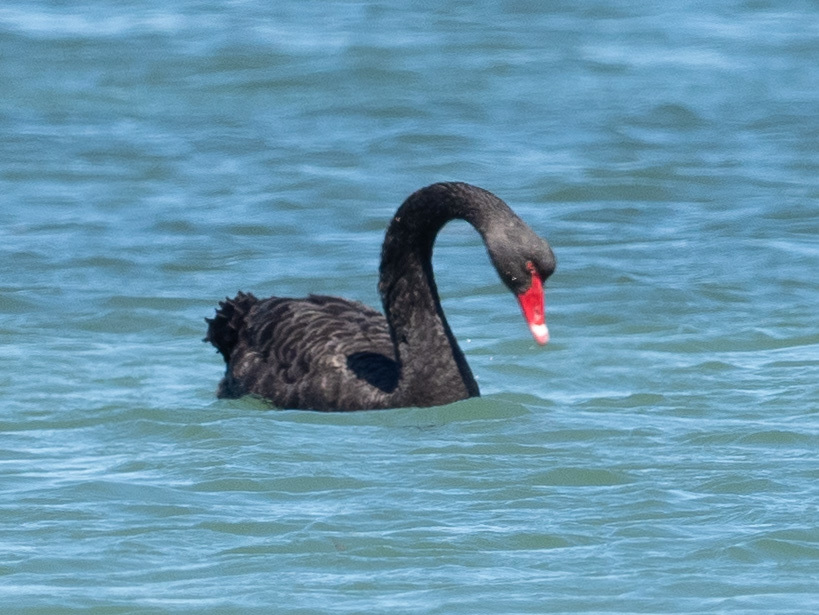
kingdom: Animalia
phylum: Chordata
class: Aves
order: Anseriformes
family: Anatidae
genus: Cygnus
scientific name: Cygnus atratus
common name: Black swan
